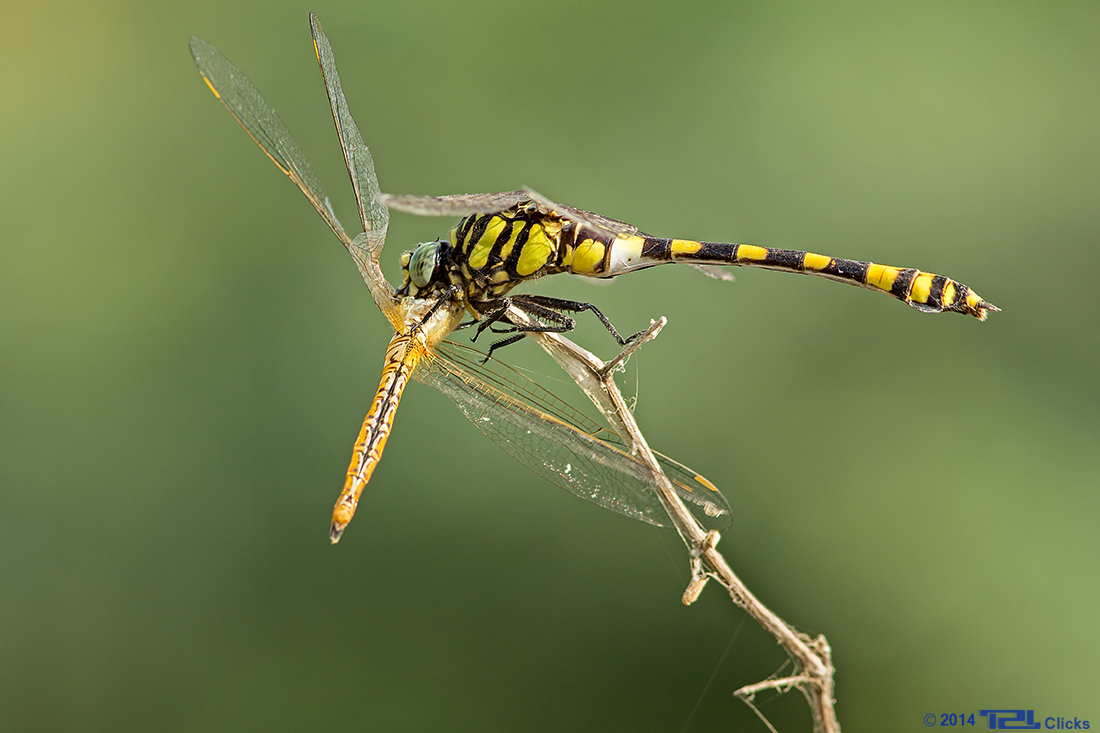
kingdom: Animalia
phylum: Arthropoda
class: Insecta
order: Odonata
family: Gomphidae
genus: Ictinogomphus
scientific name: Ictinogomphus rapax
